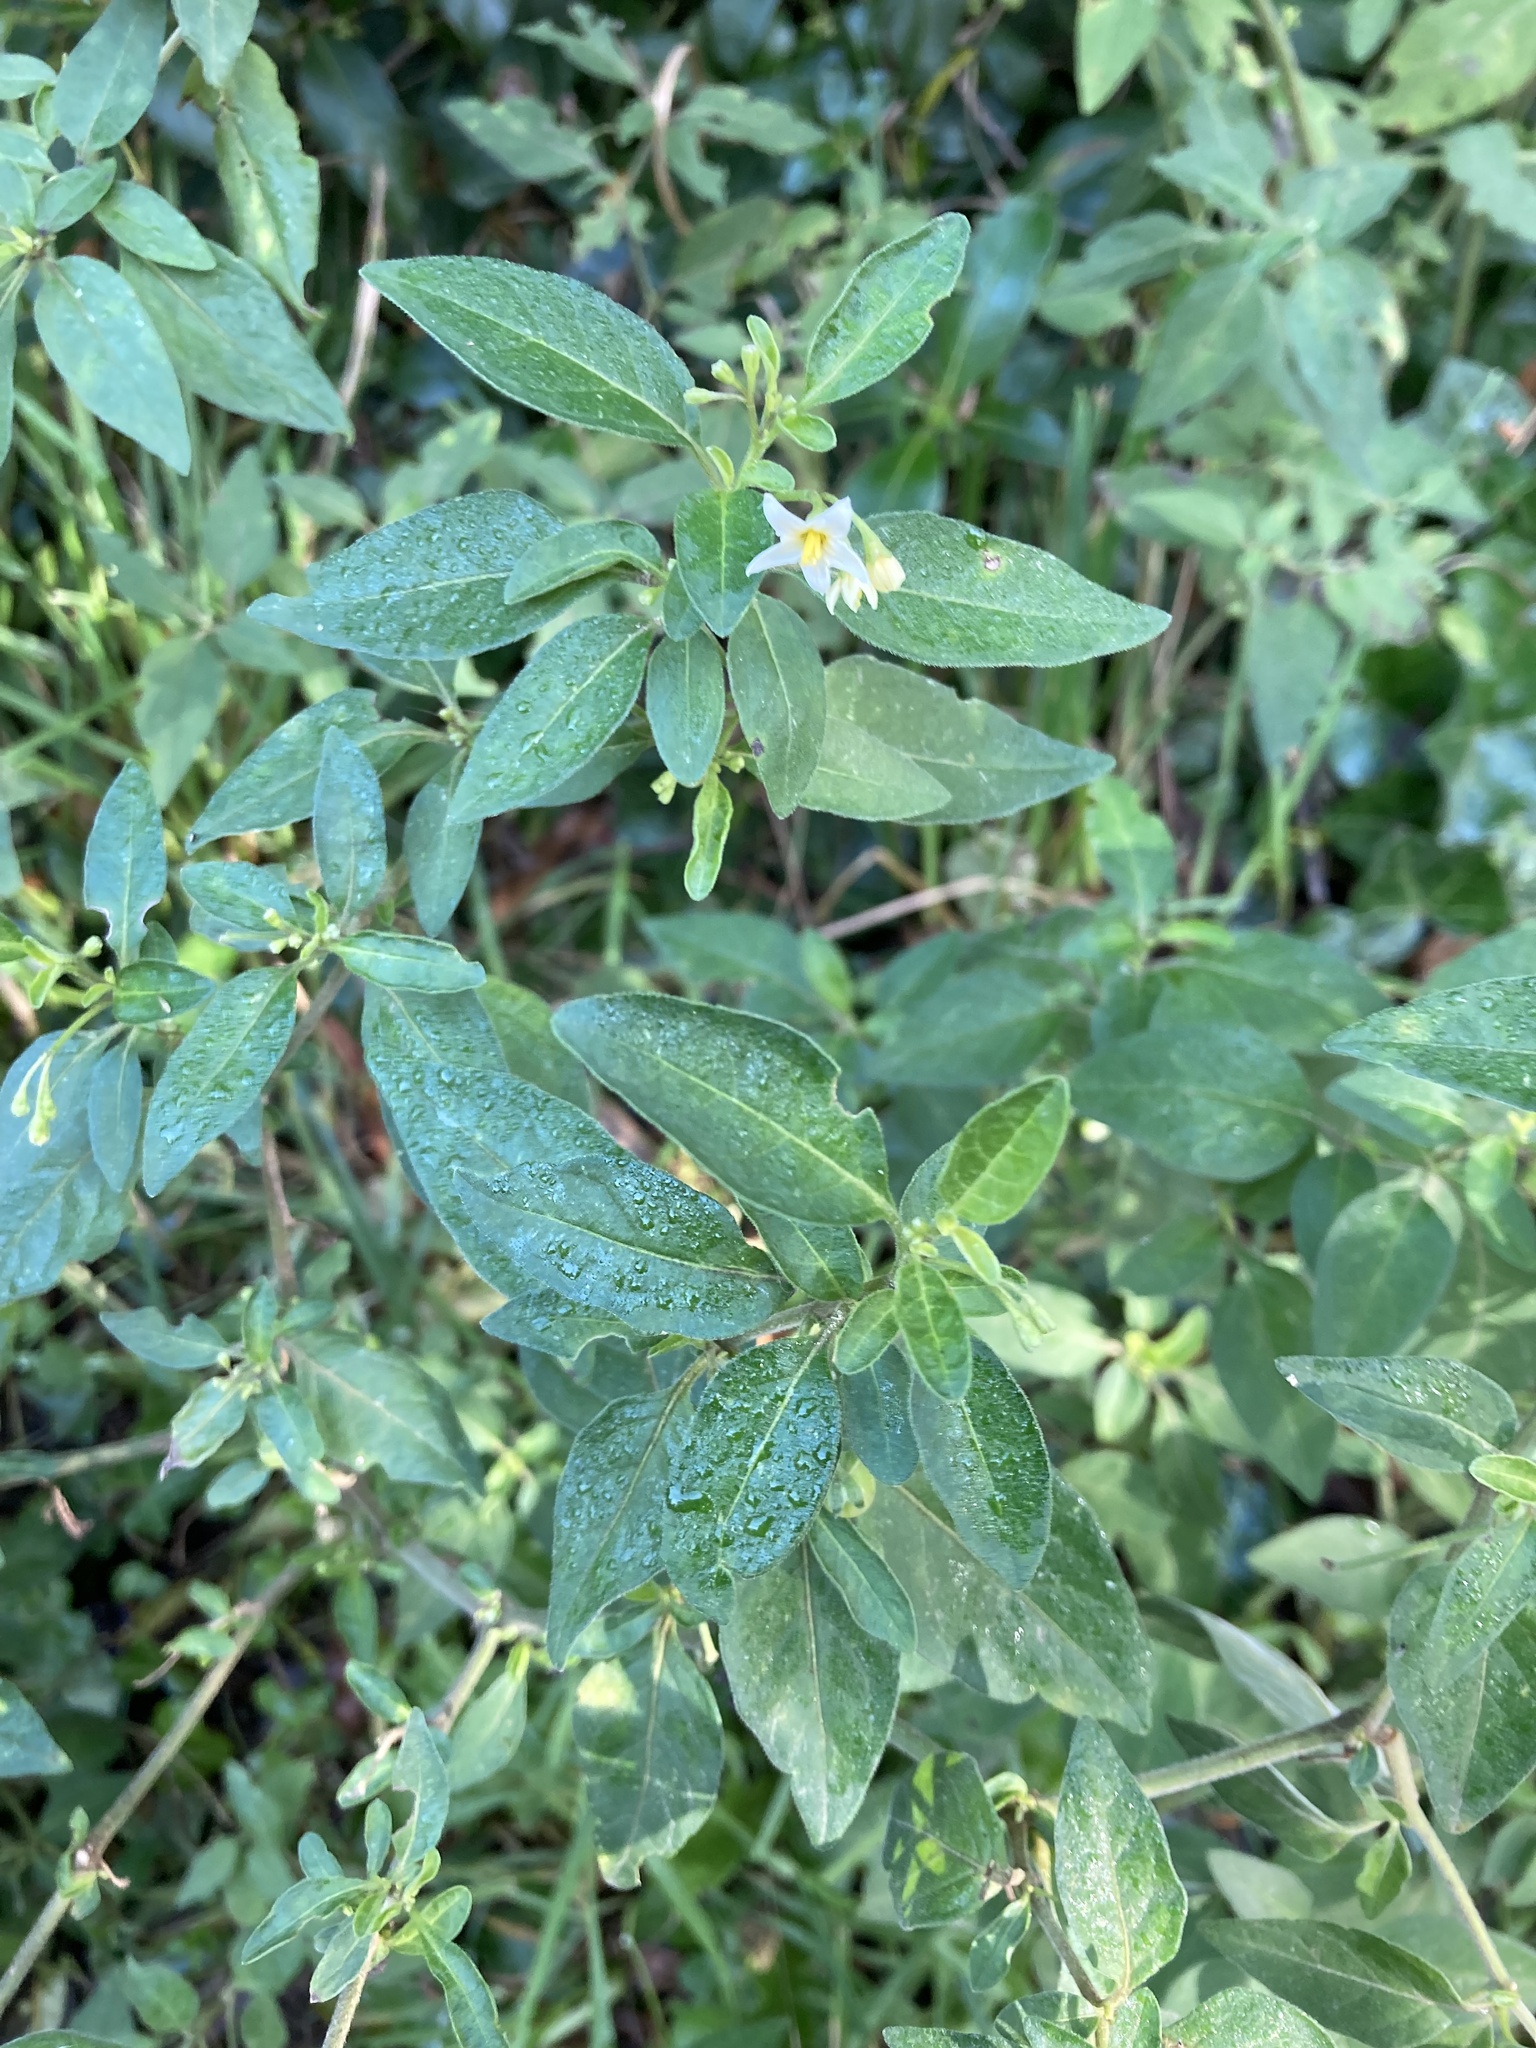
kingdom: Plantae
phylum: Tracheophyta
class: Magnoliopsida
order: Solanales
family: Solanaceae
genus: Solanum
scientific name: Solanum chenopodioides
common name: Tall nightshade
